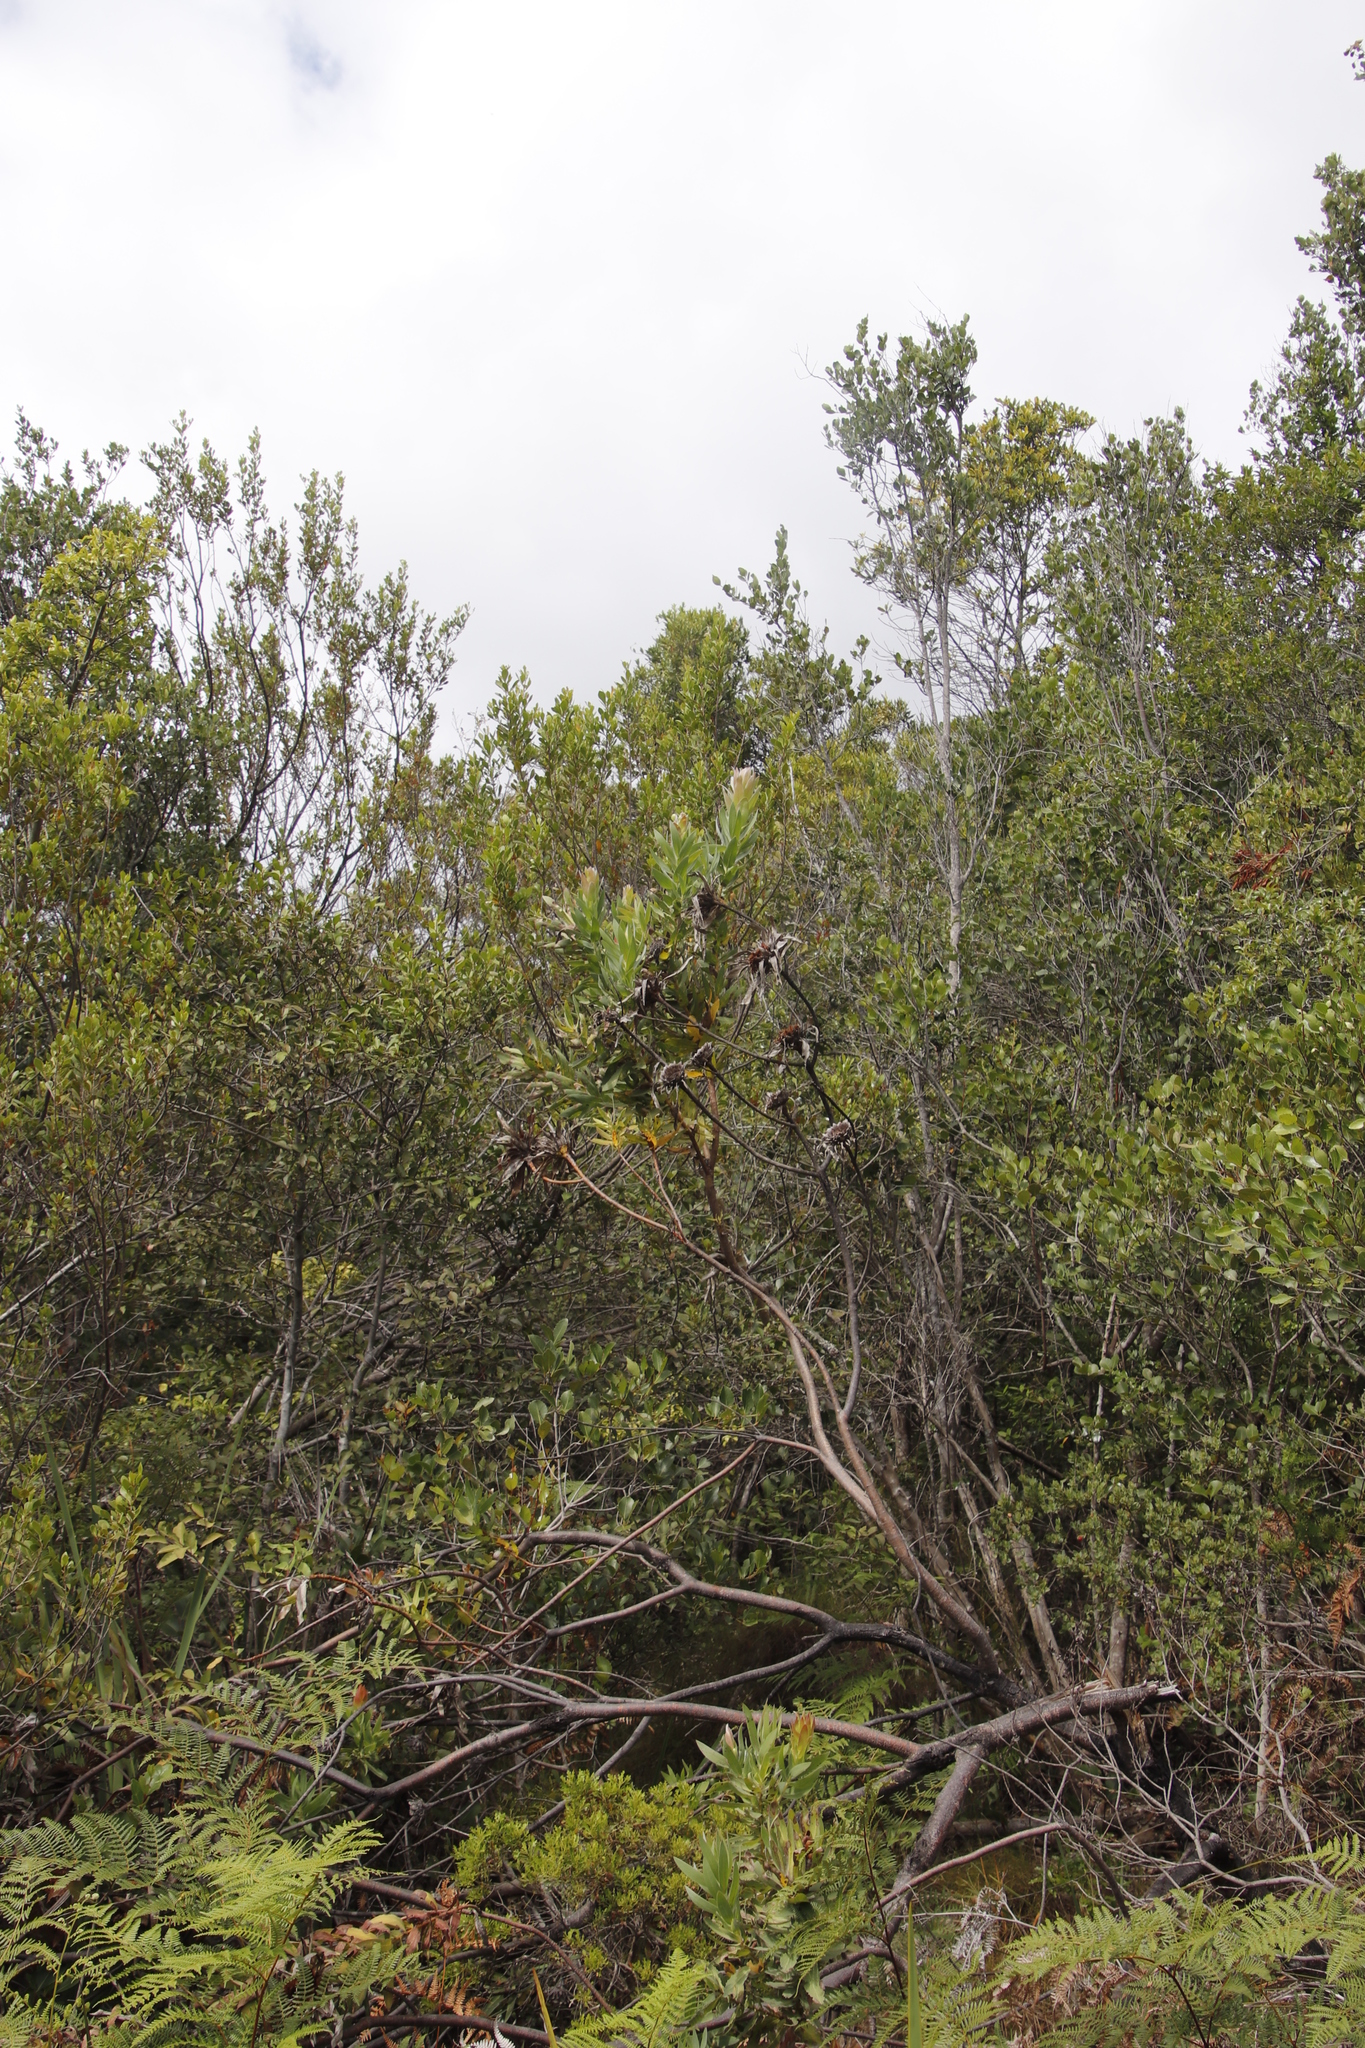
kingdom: Plantae
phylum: Tracheophyta
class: Magnoliopsida
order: Proteales
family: Proteaceae
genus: Protea
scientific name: Protea coronata
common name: Green sugarbush
